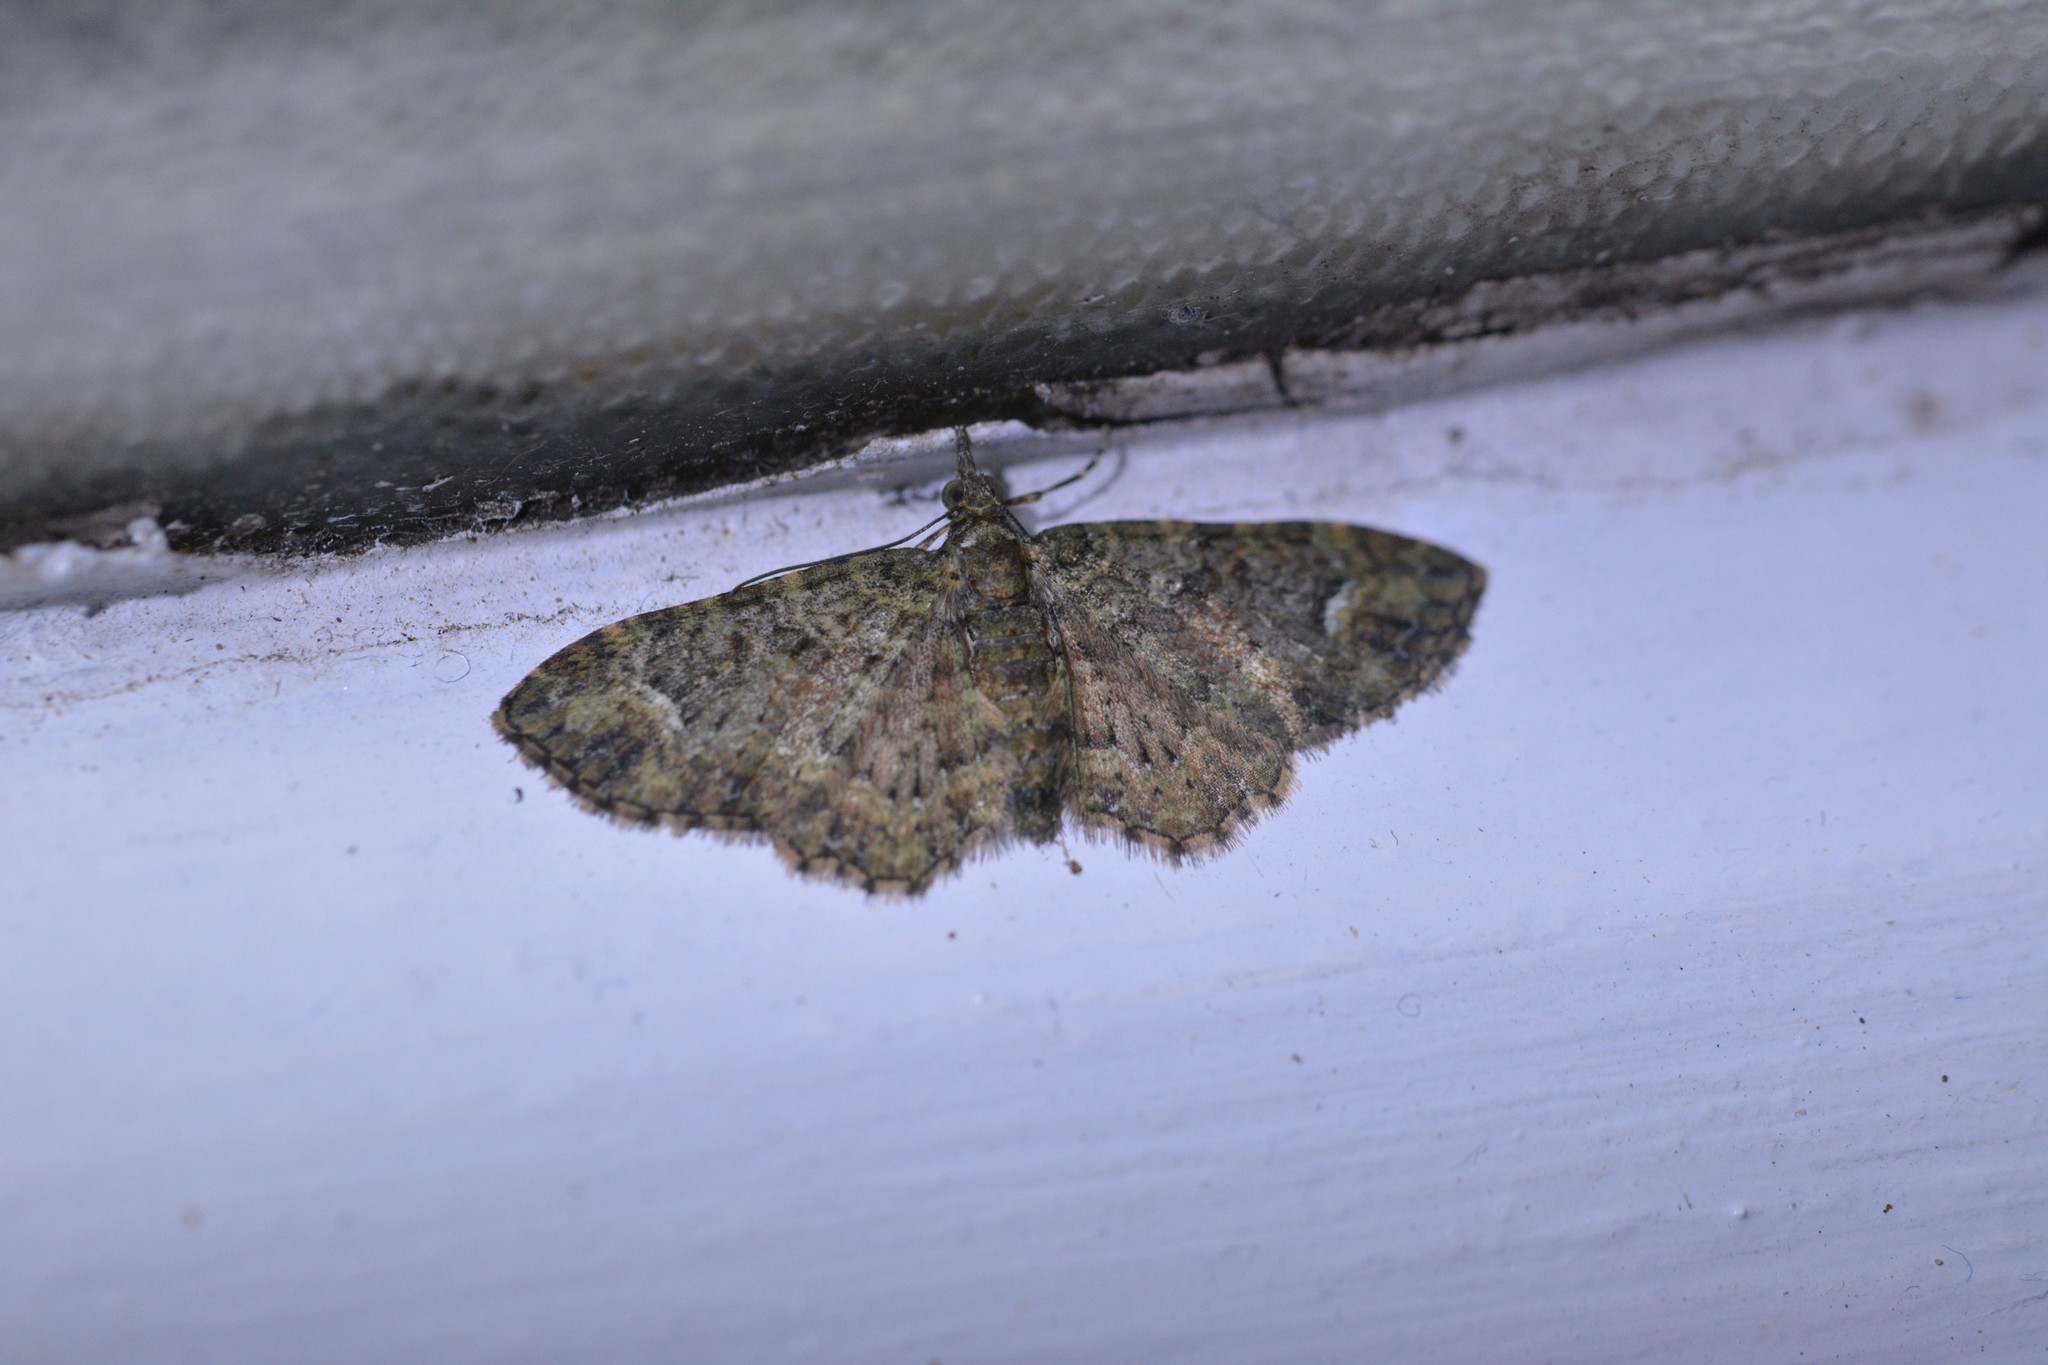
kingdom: Animalia
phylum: Arthropoda
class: Insecta
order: Lepidoptera
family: Geometridae
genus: Pasiphilodes
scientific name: Pasiphilodes testulata
